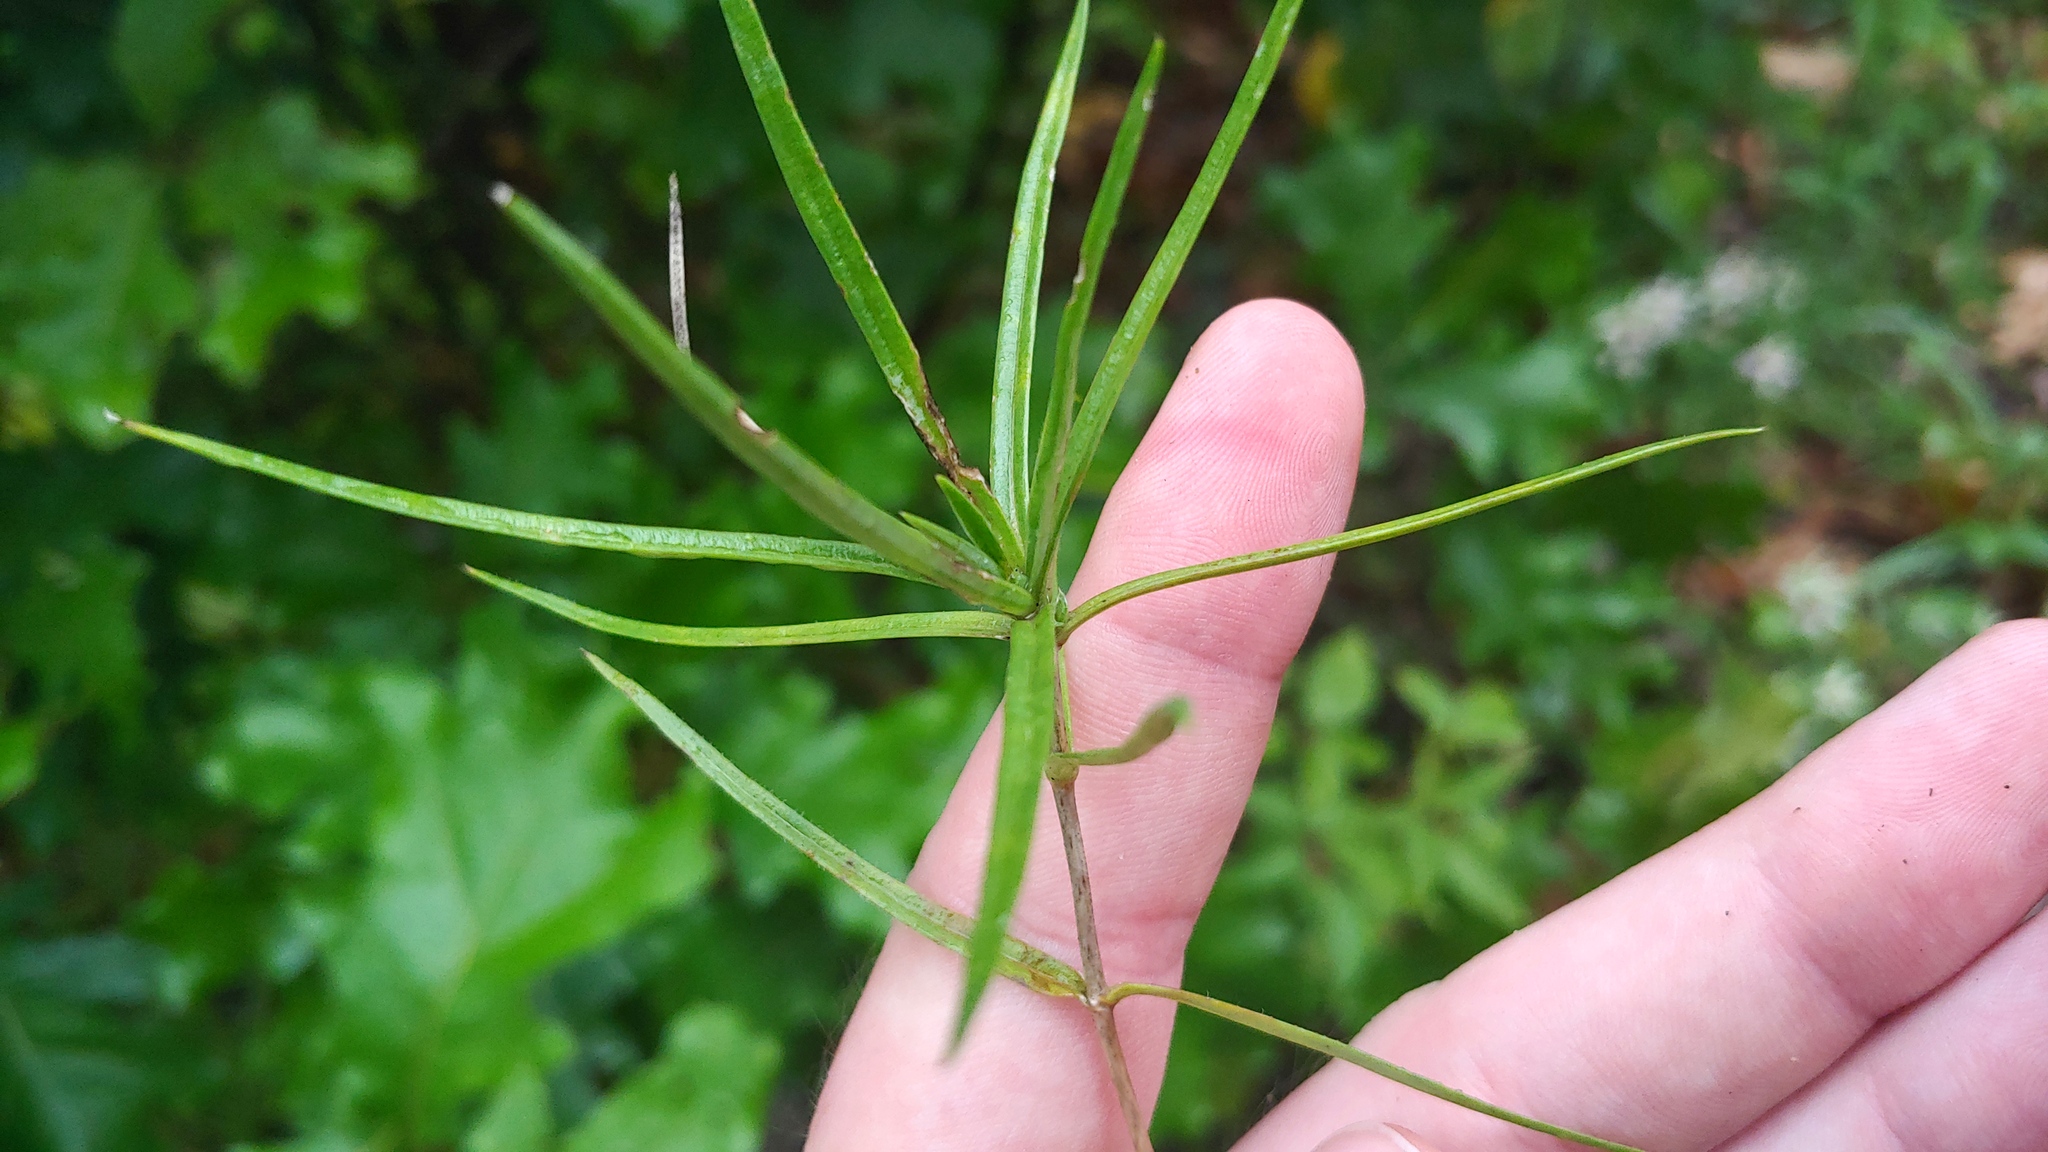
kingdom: Plantae
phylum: Tracheophyta
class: Magnoliopsida
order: Ericales
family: Polemoniaceae
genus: Phlox
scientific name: Phlox bifida
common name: Sand phlox
